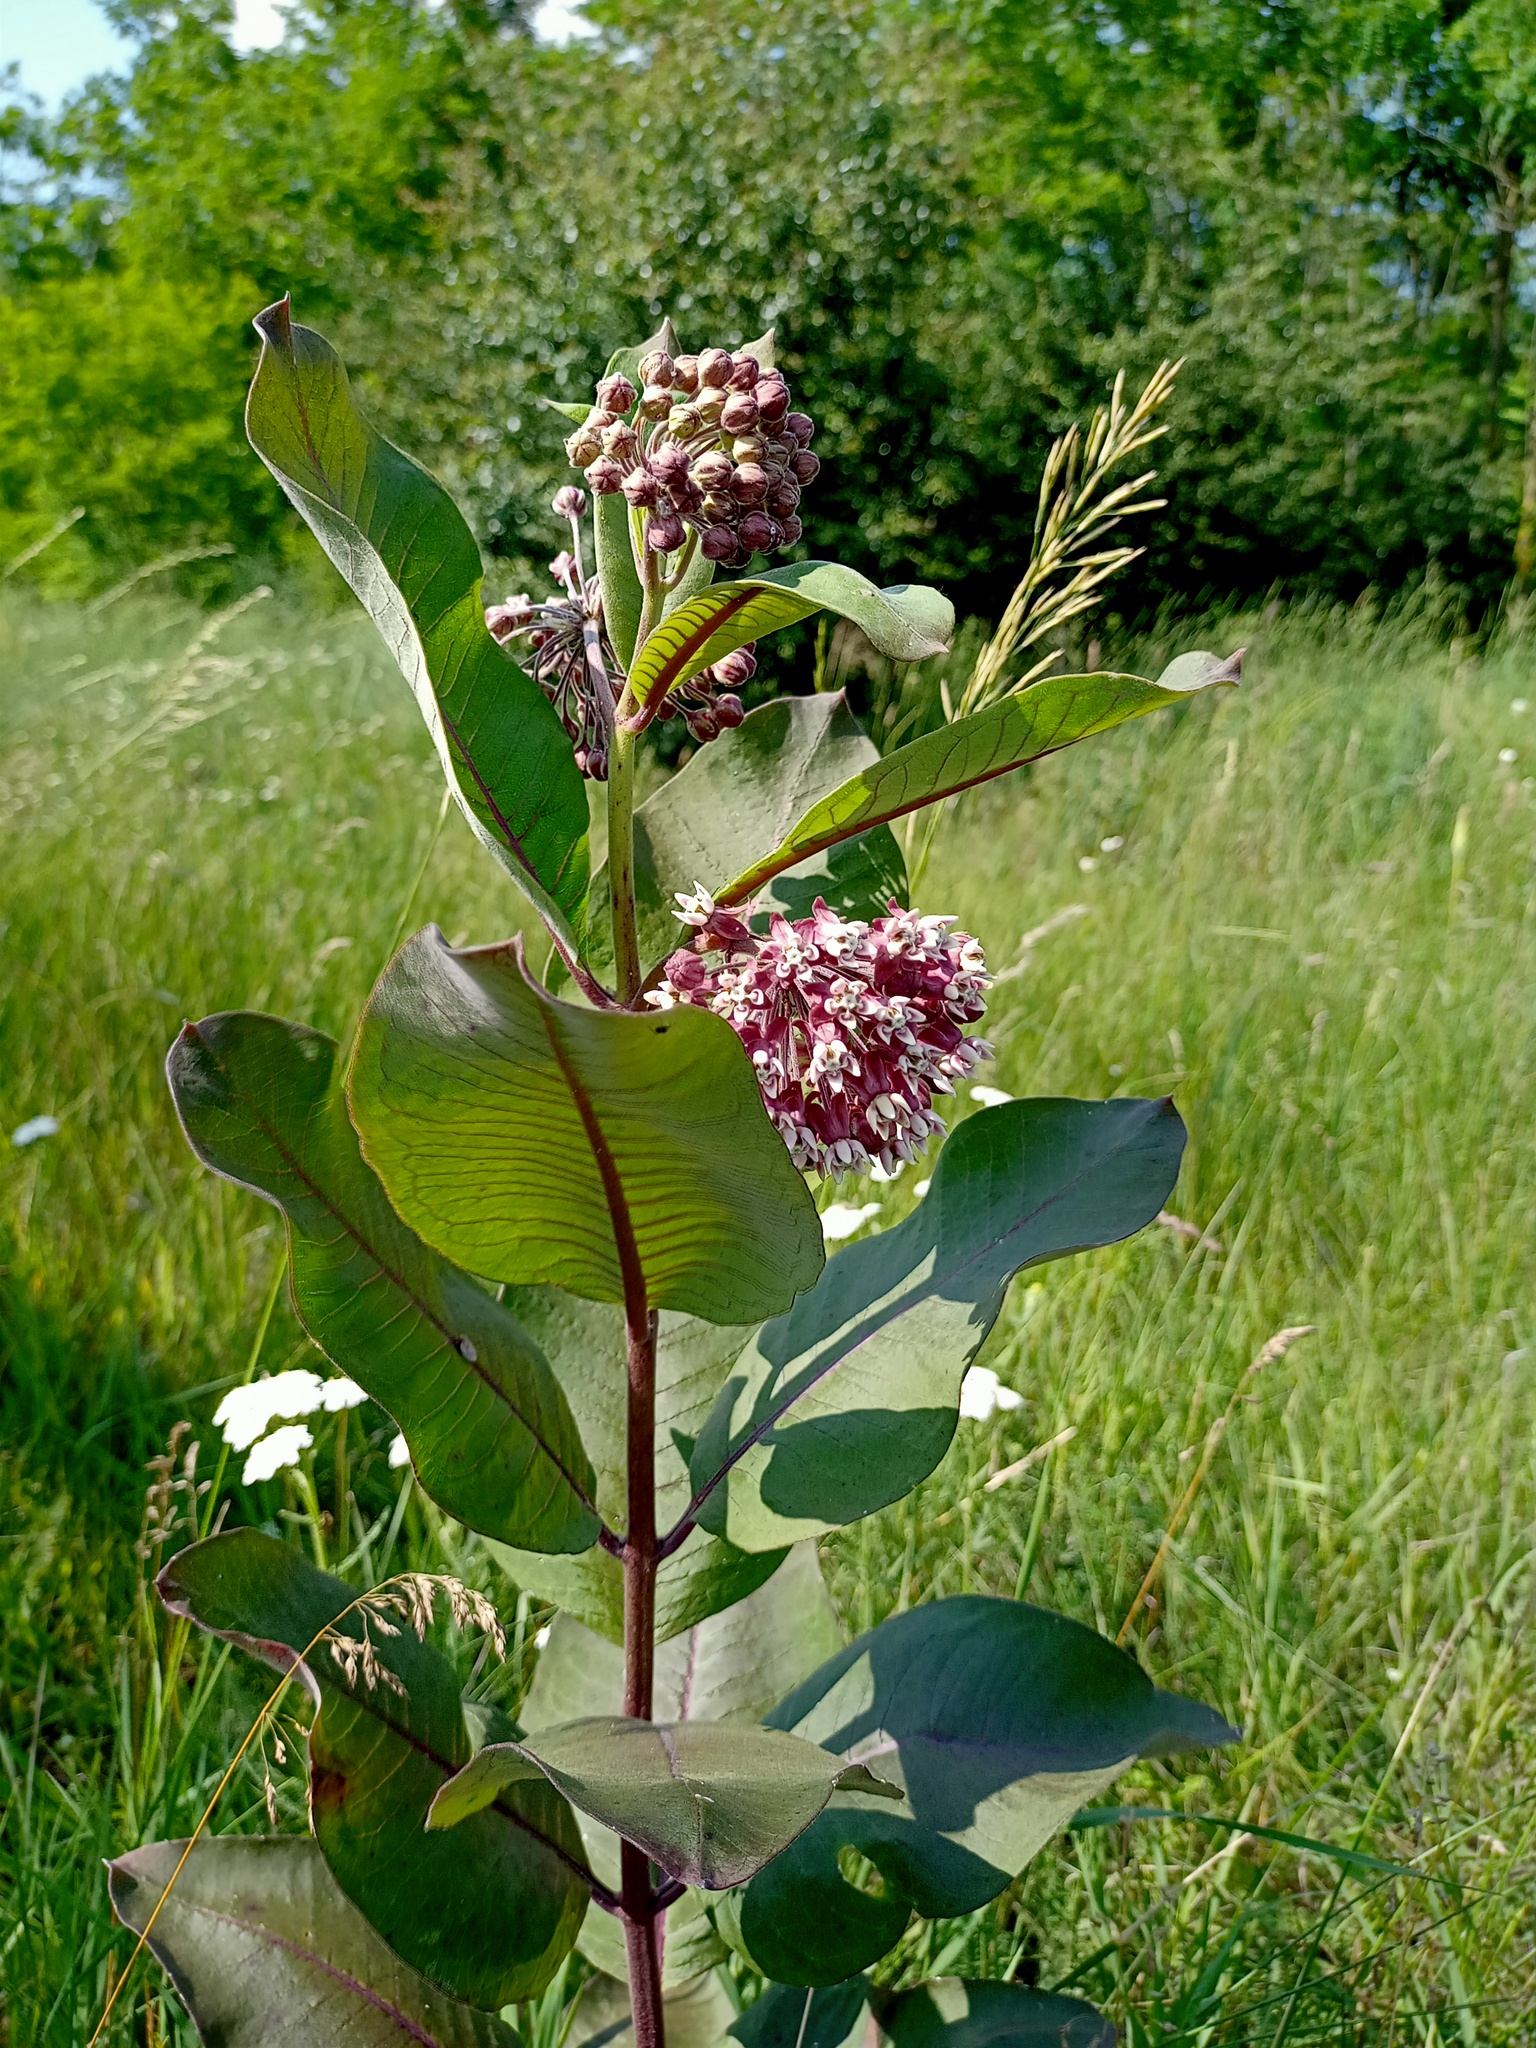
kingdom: Plantae
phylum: Tracheophyta
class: Magnoliopsida
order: Gentianales
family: Apocynaceae
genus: Asclepias
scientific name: Asclepias syriaca
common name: Common milkweed
